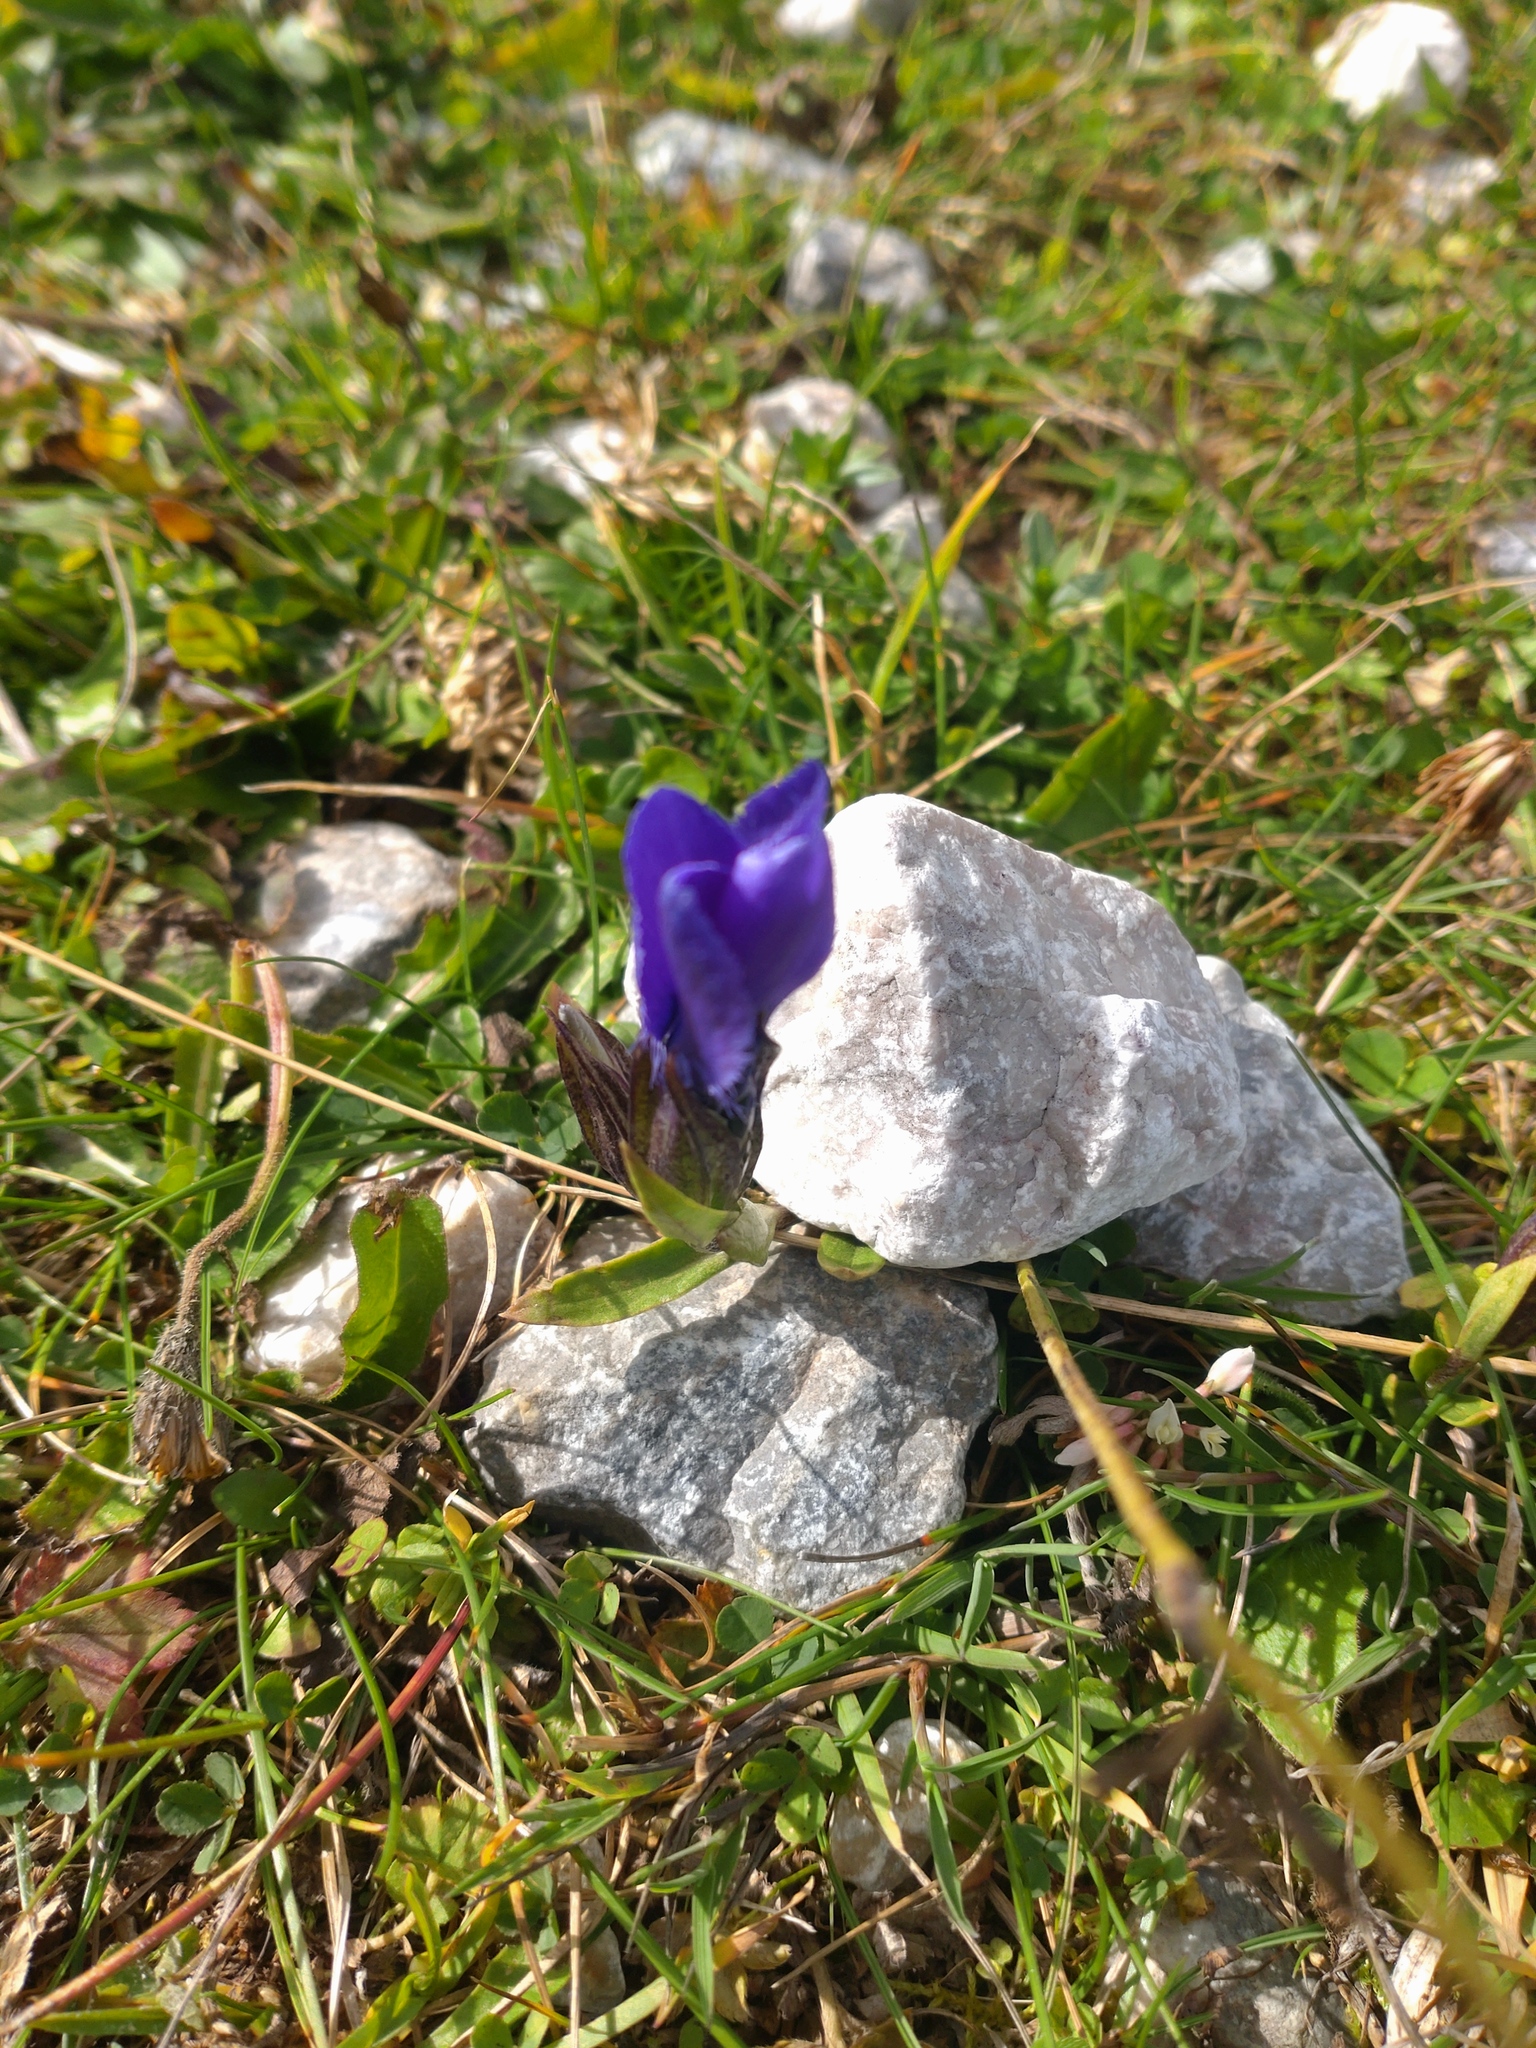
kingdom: Plantae
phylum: Tracheophyta
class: Magnoliopsida
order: Gentianales
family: Gentianaceae
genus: Gentianopsis
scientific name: Gentianopsis ciliata
